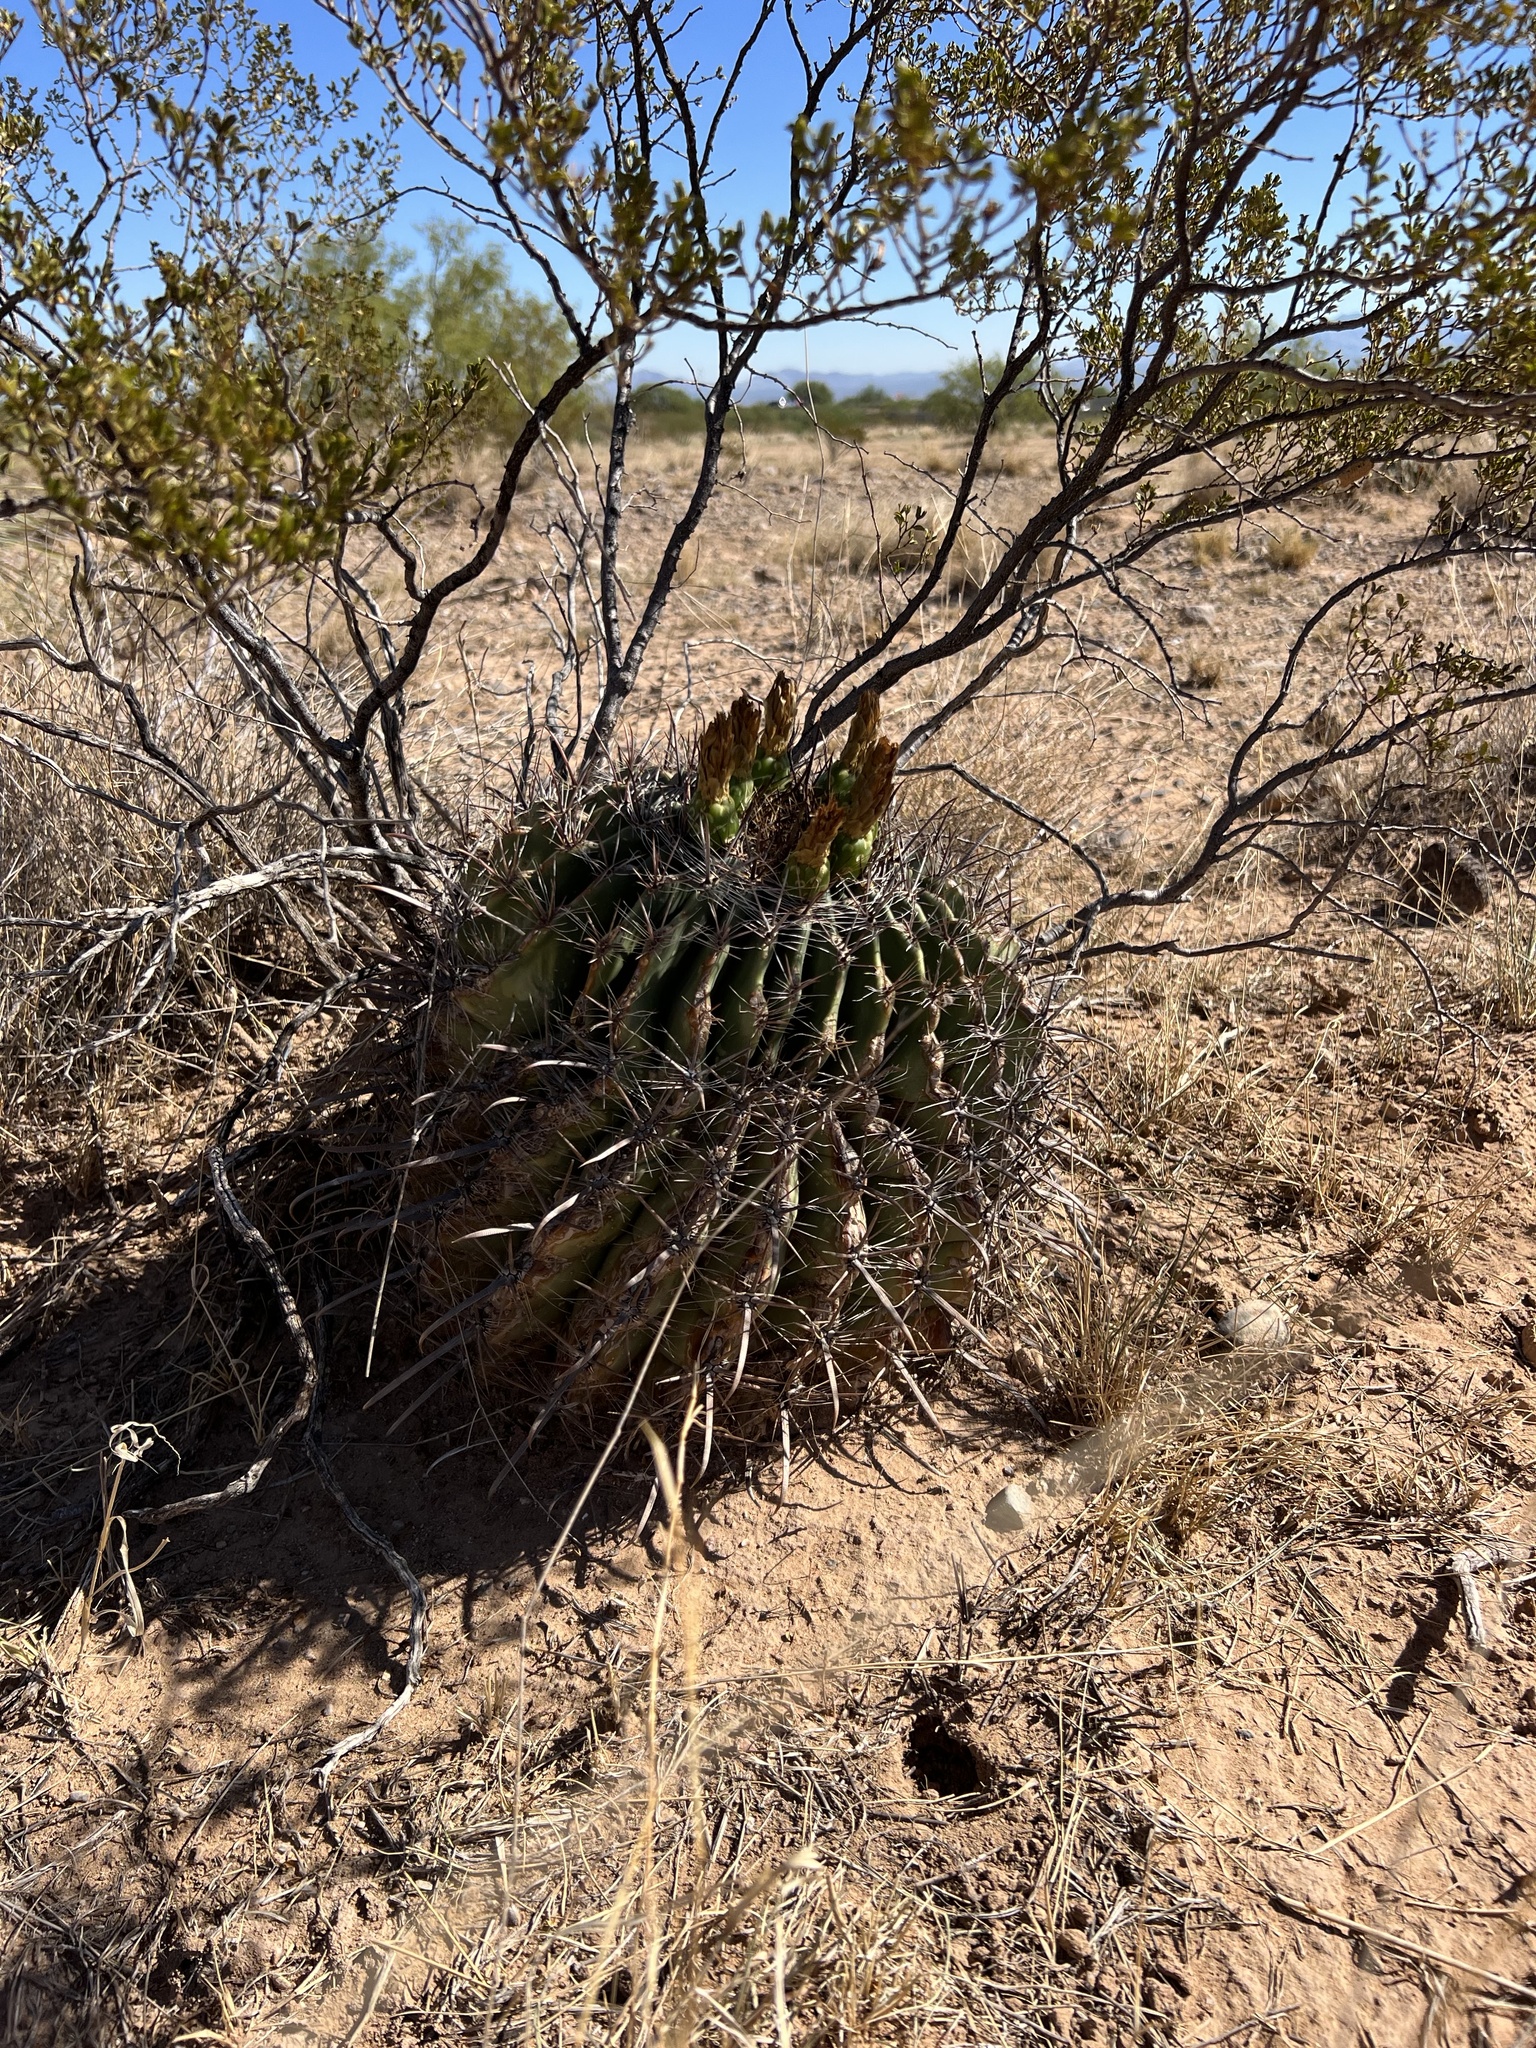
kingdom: Plantae
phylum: Tracheophyta
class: Magnoliopsida
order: Caryophyllales
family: Cactaceae
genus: Ferocactus
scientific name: Ferocactus wislizeni
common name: Candy barrel cactus
